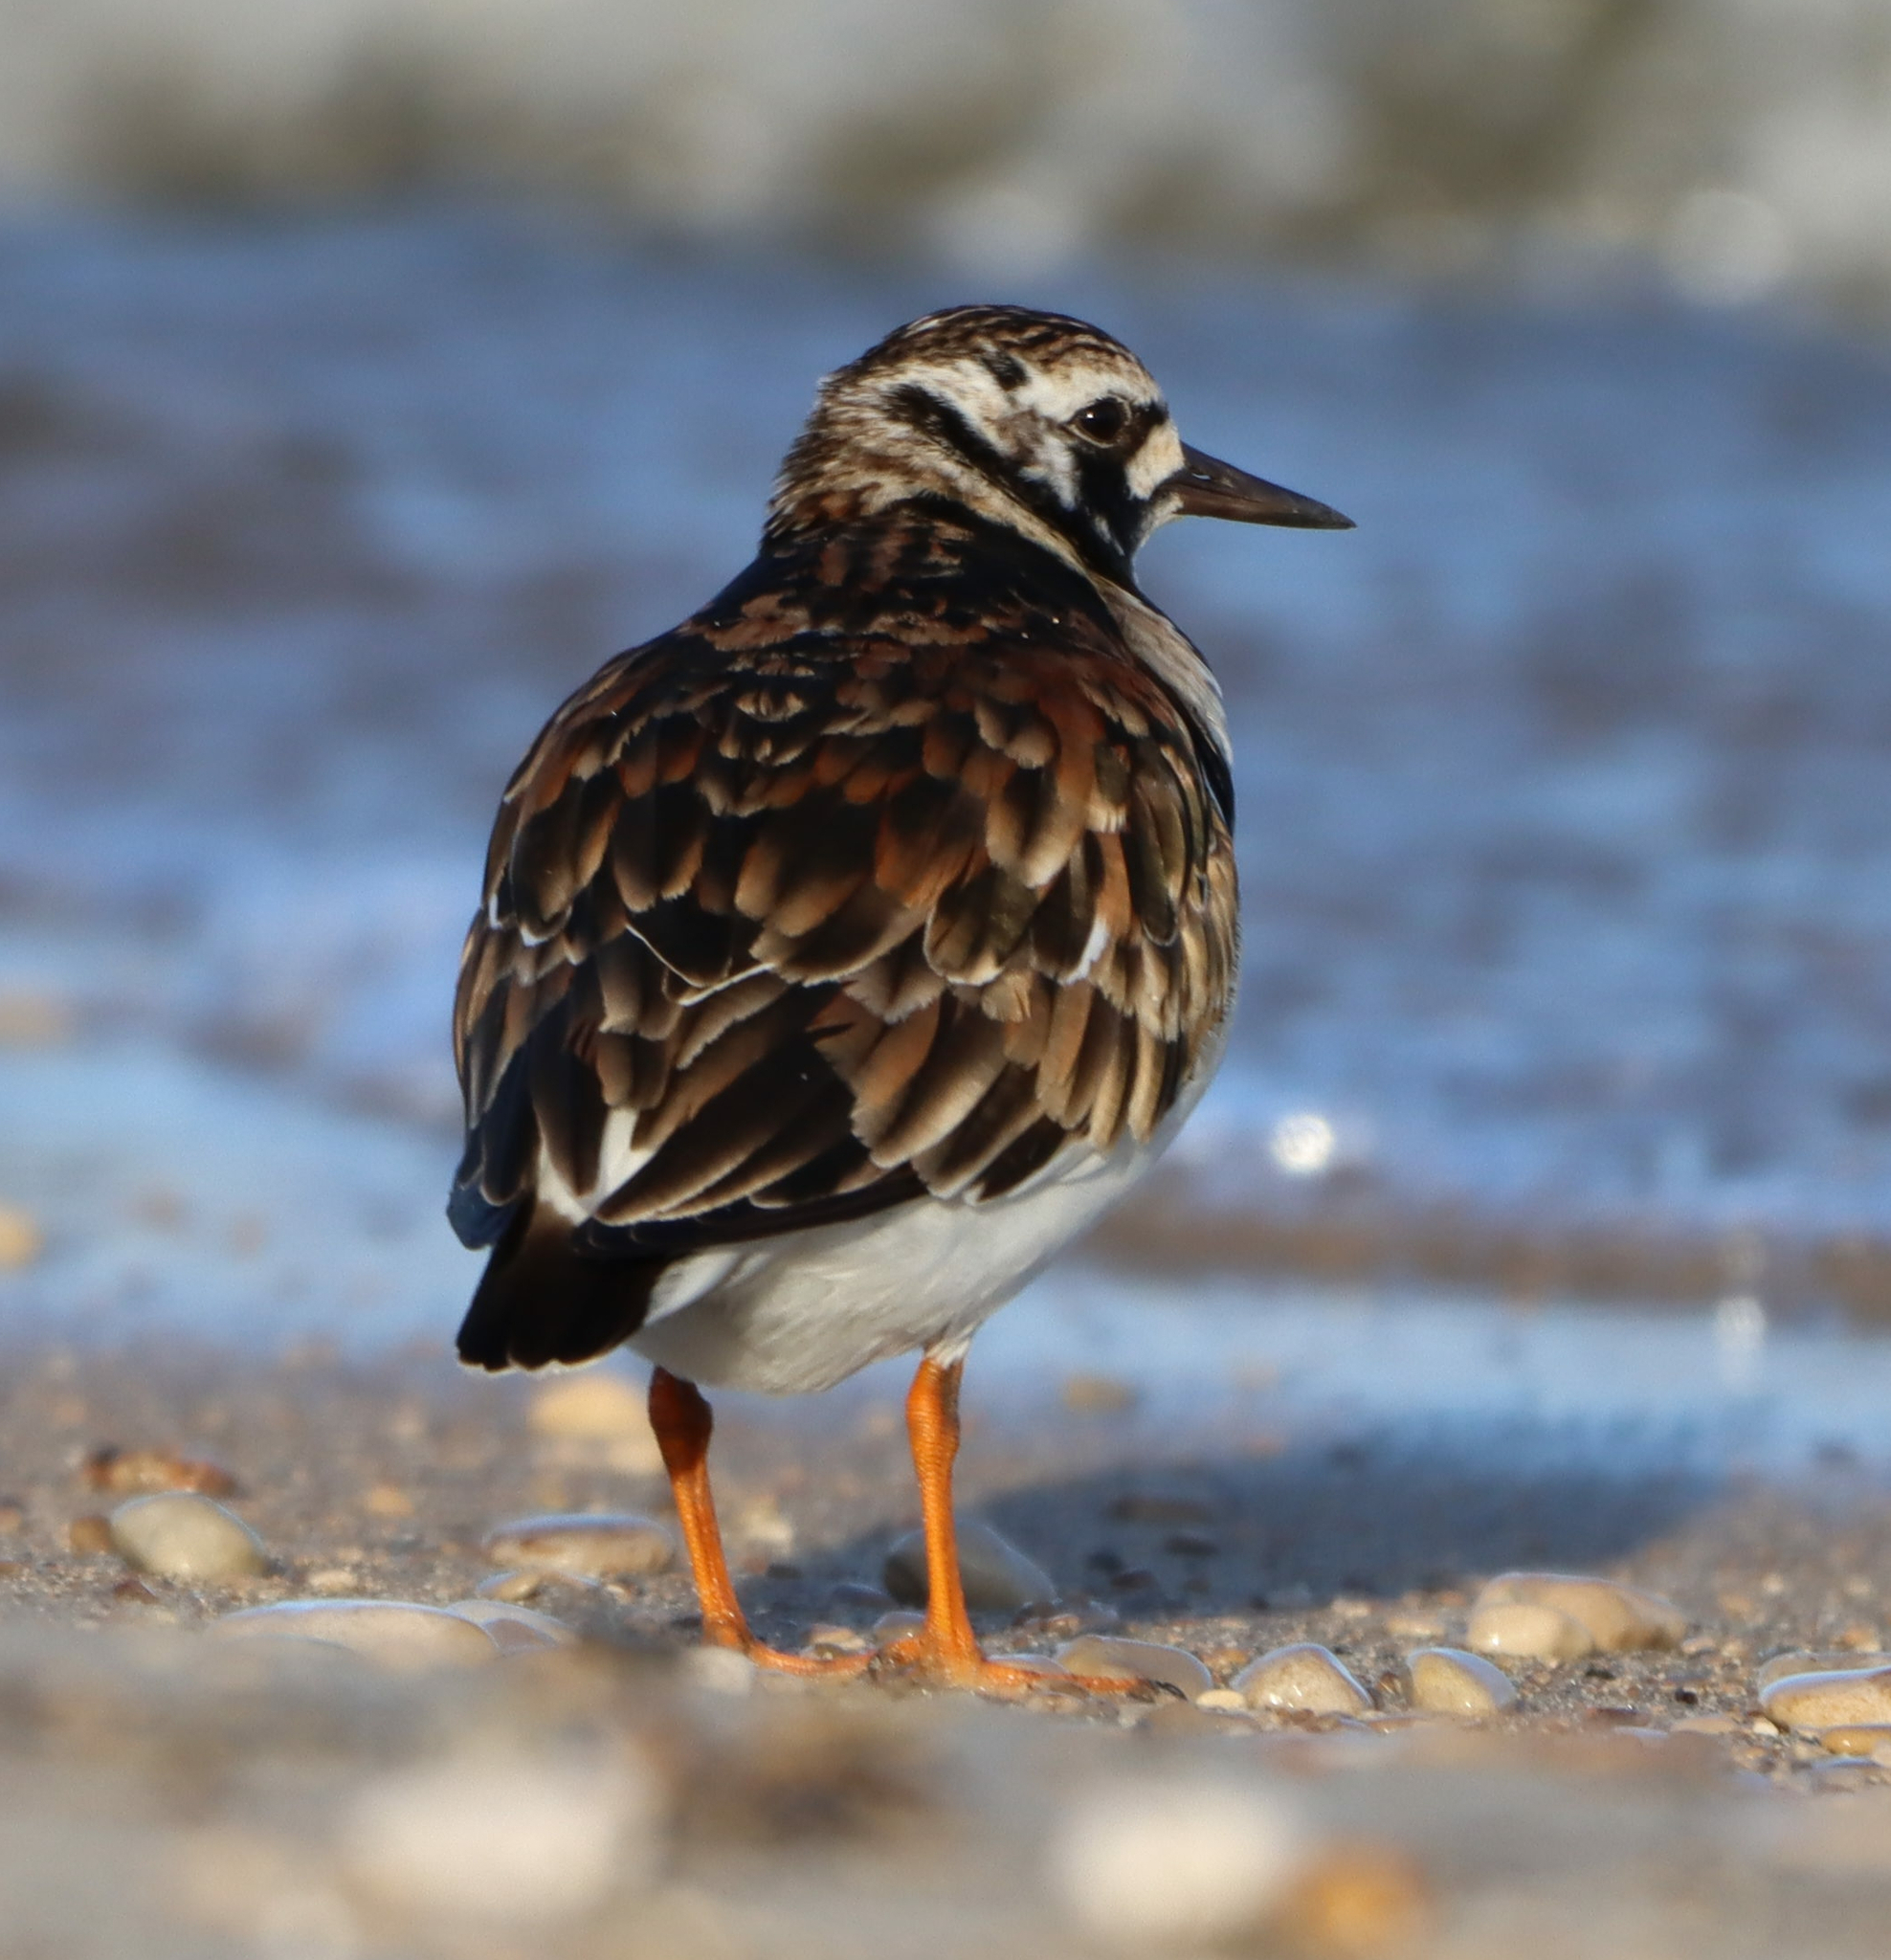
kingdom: Animalia
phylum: Chordata
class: Aves
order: Charadriiformes
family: Scolopacidae
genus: Arenaria
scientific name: Arenaria interpres
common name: Ruddy turnstone
